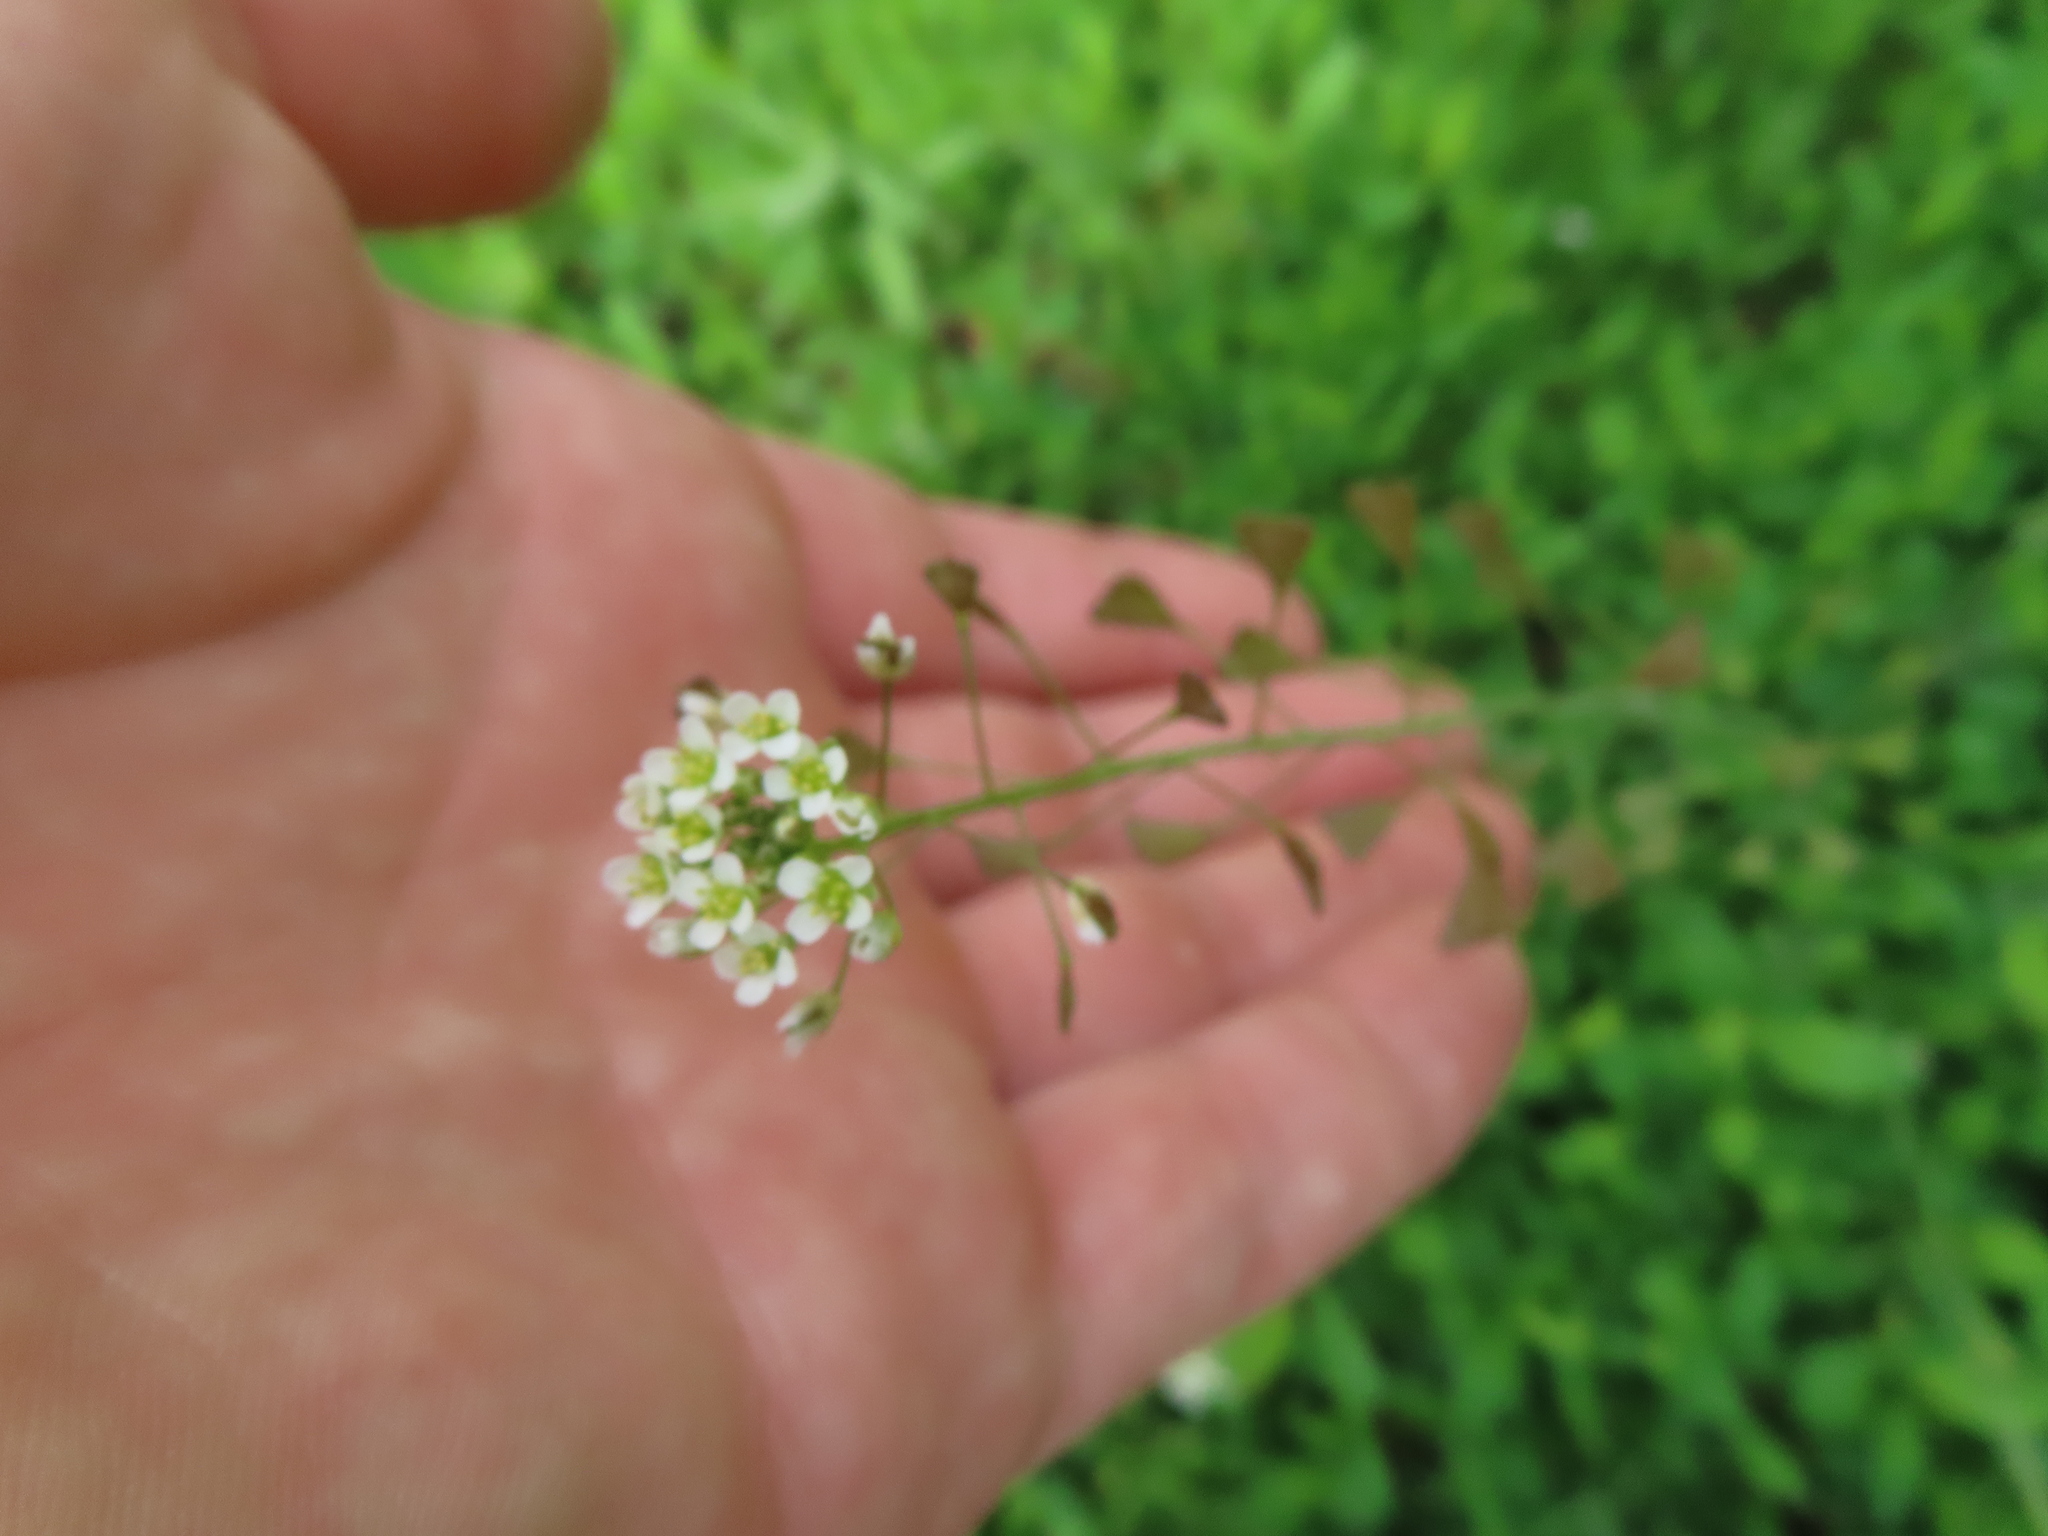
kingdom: Plantae
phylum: Tracheophyta
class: Magnoliopsida
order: Brassicales
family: Brassicaceae
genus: Capsella
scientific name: Capsella bursa-pastoris
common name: Shepherd's purse
